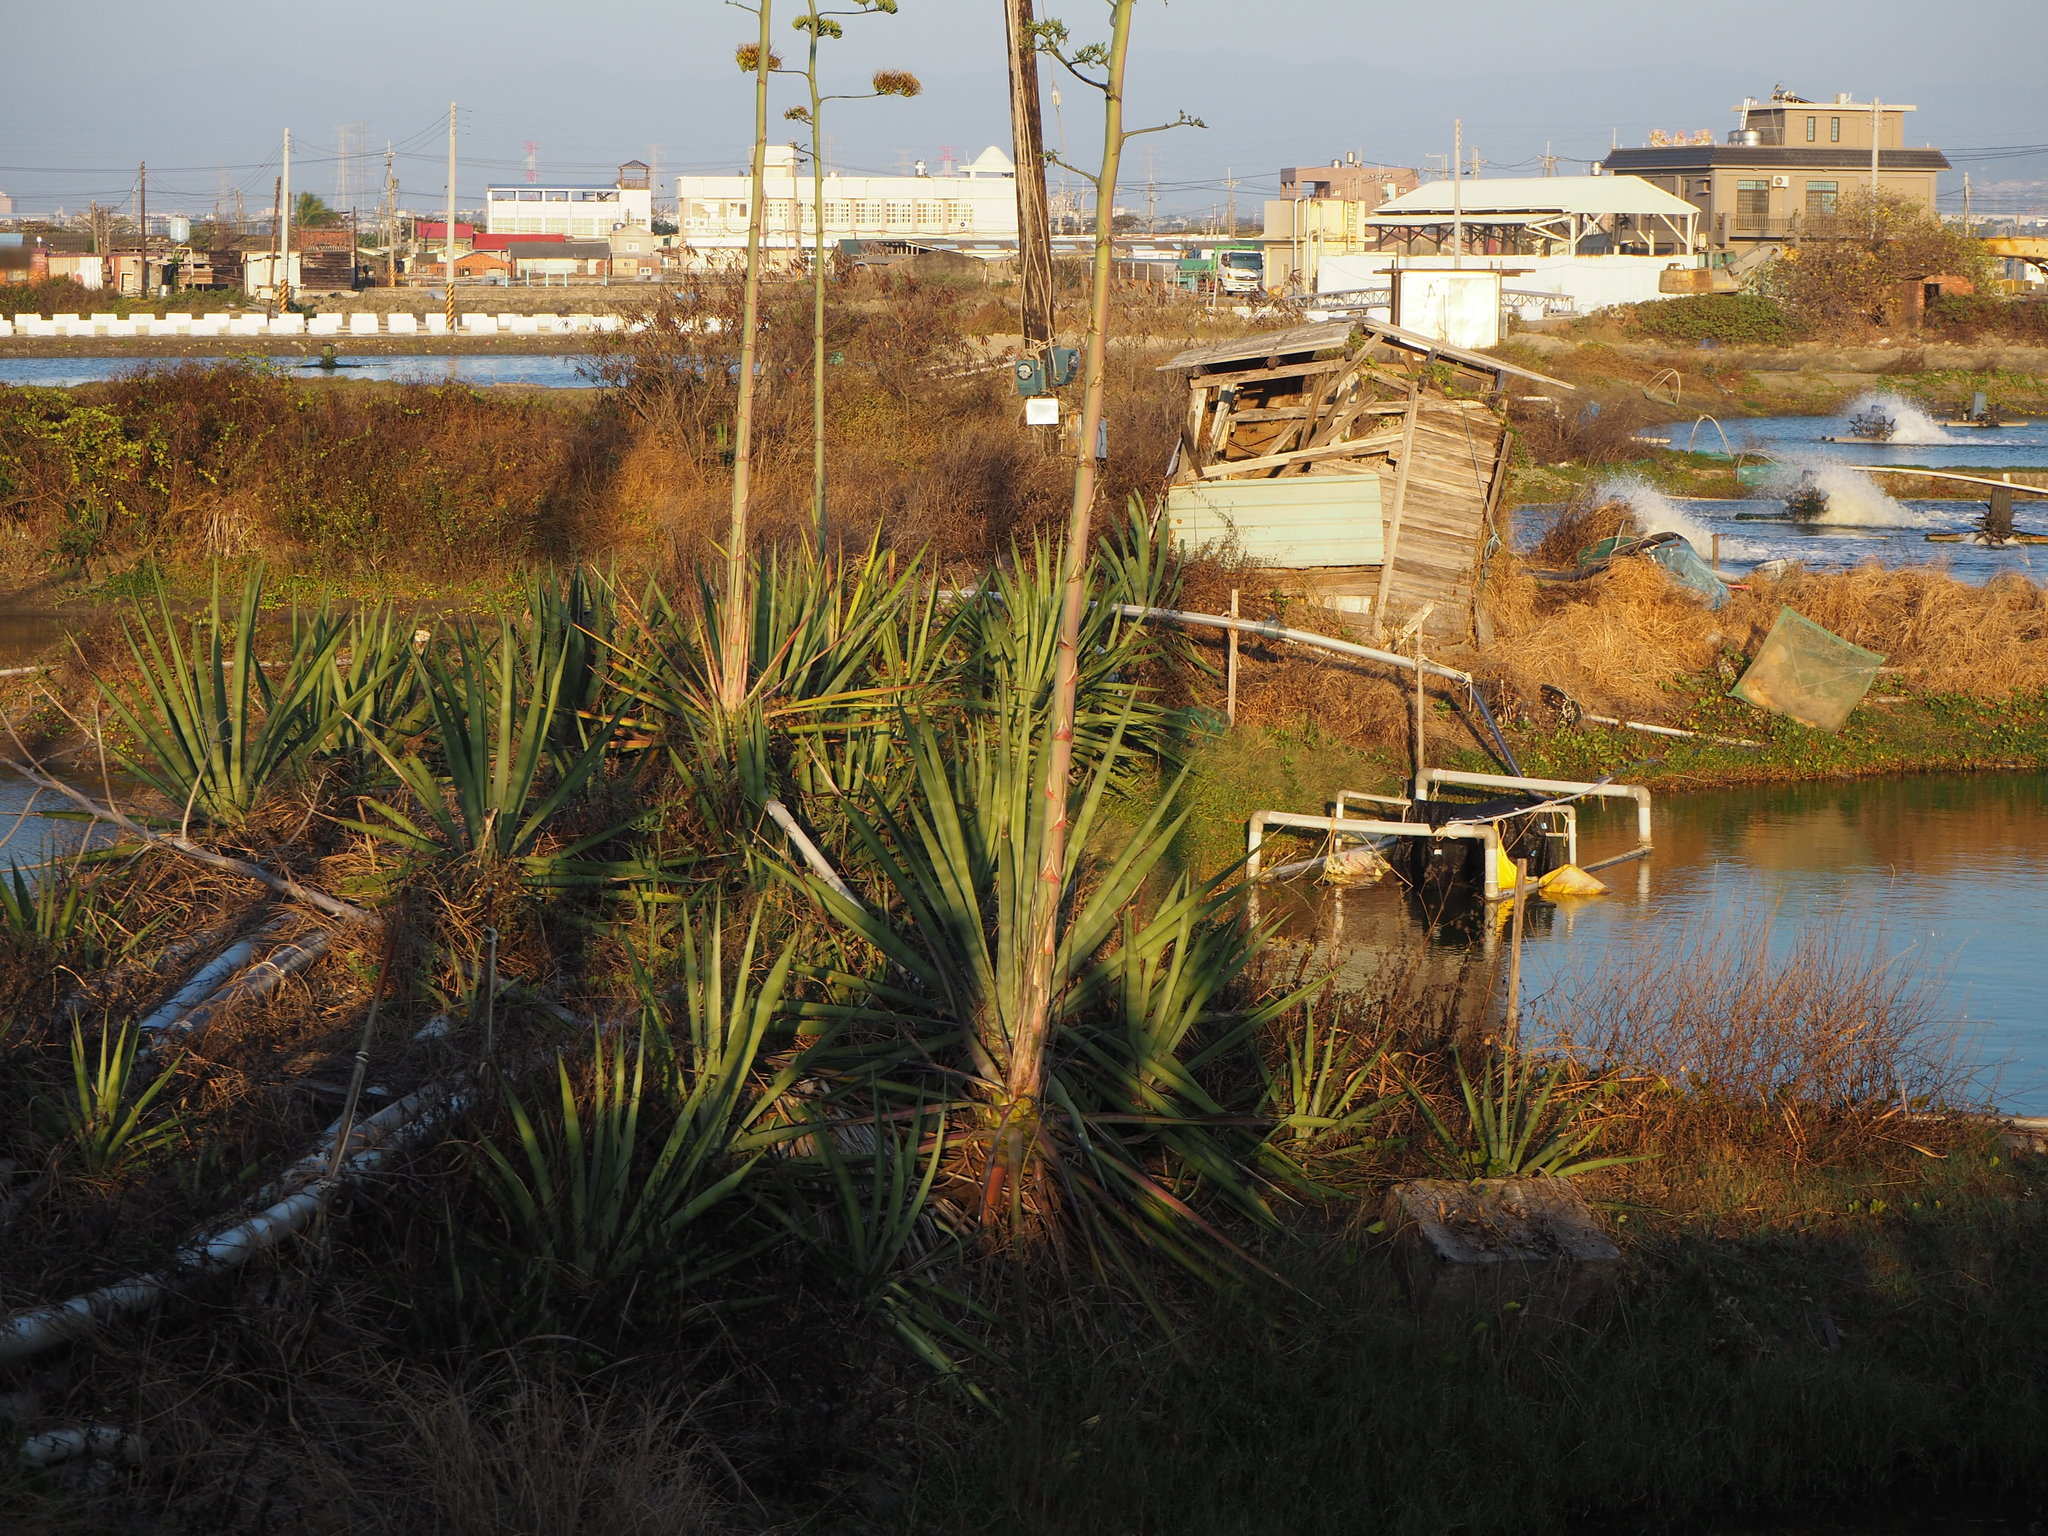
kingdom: Plantae
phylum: Tracheophyta
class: Liliopsida
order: Asparagales
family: Asparagaceae
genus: Agave
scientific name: Agave sisalana
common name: Sisal hemp
